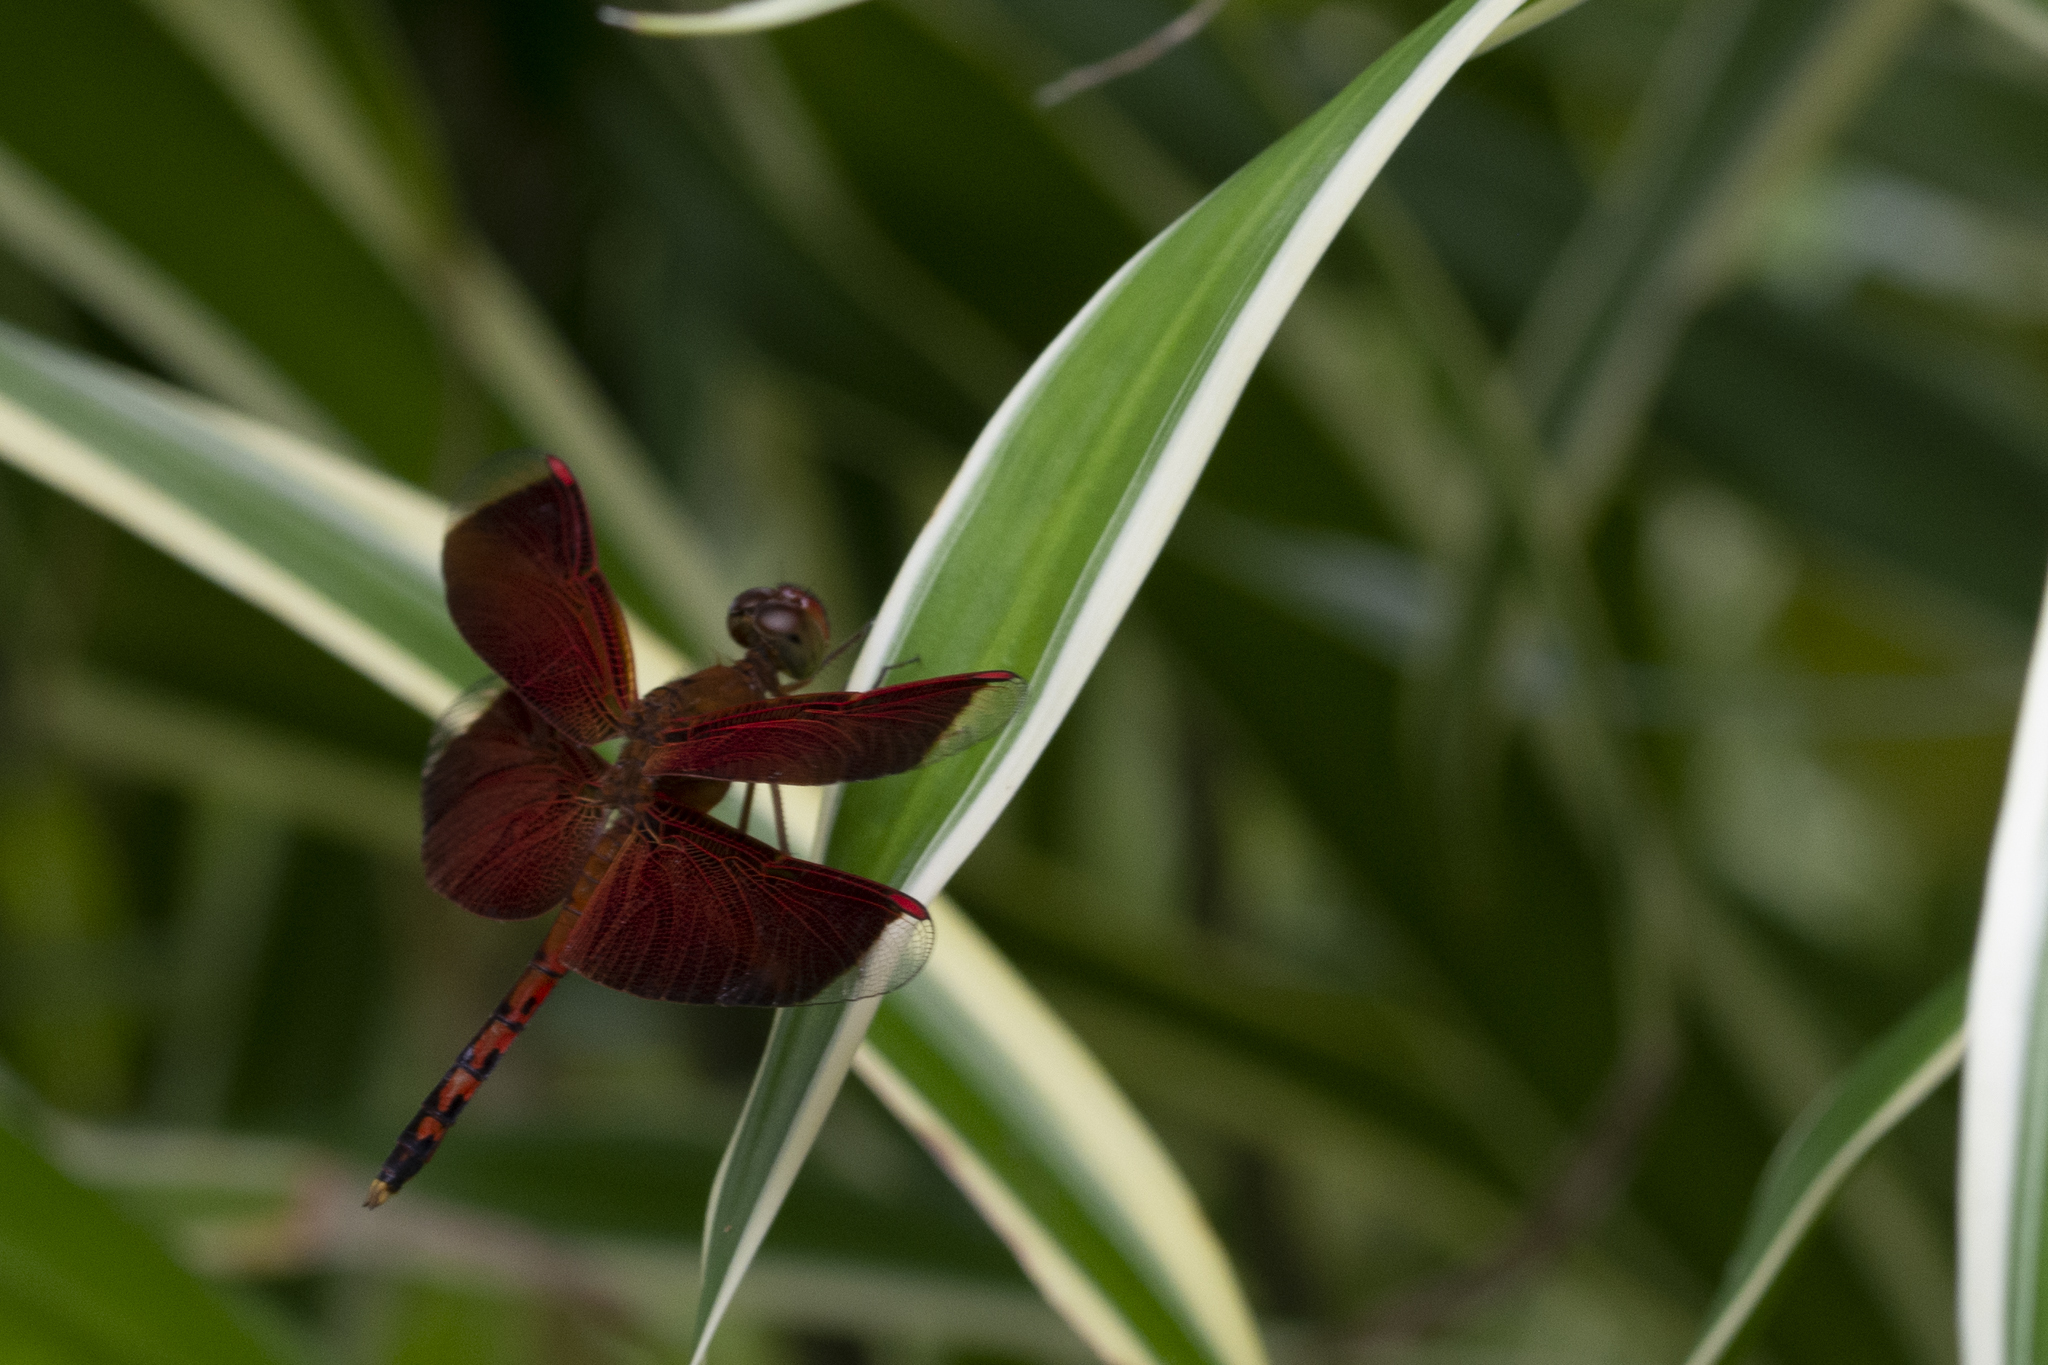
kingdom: Animalia
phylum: Arthropoda
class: Insecta
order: Odonata
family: Libellulidae
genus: Neurothemis
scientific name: Neurothemis terminata
